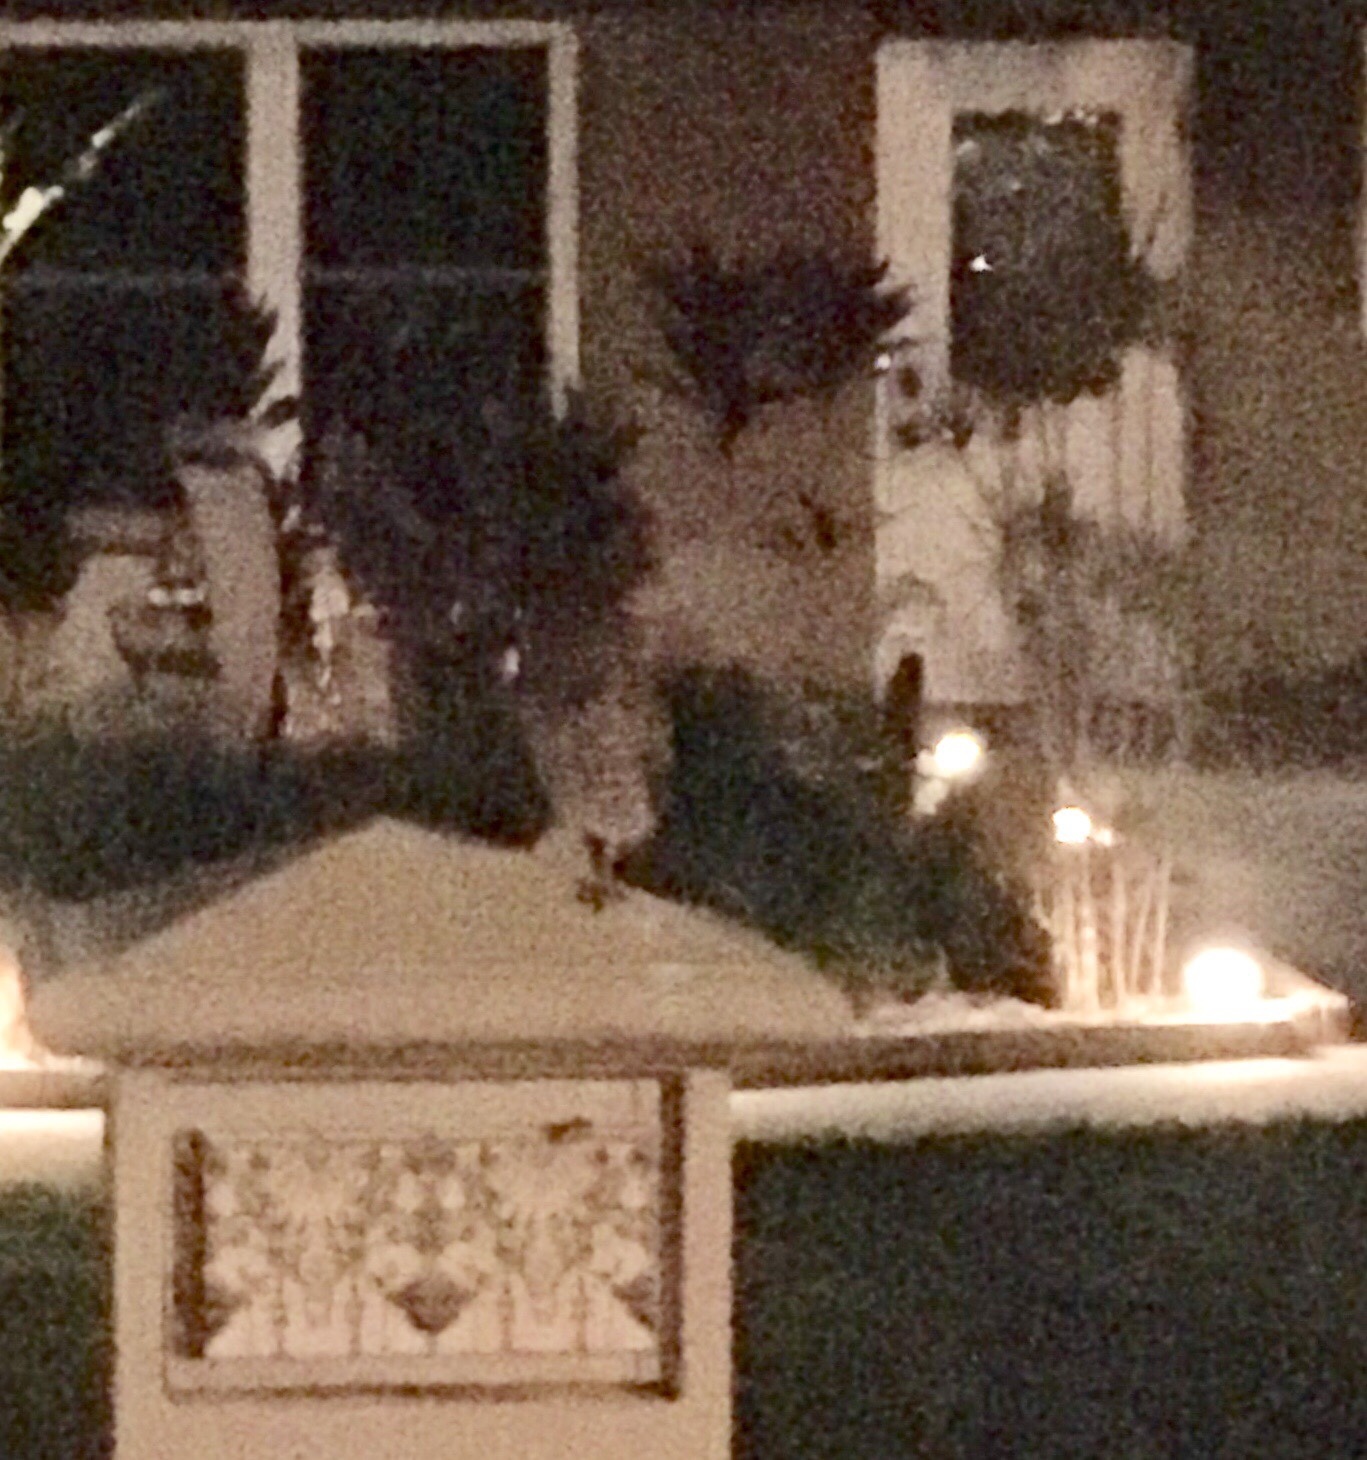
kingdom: Animalia
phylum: Chordata
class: Aves
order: Strigiformes
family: Strigidae
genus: Athene
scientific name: Athene cunicularia
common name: Burrowing owl
